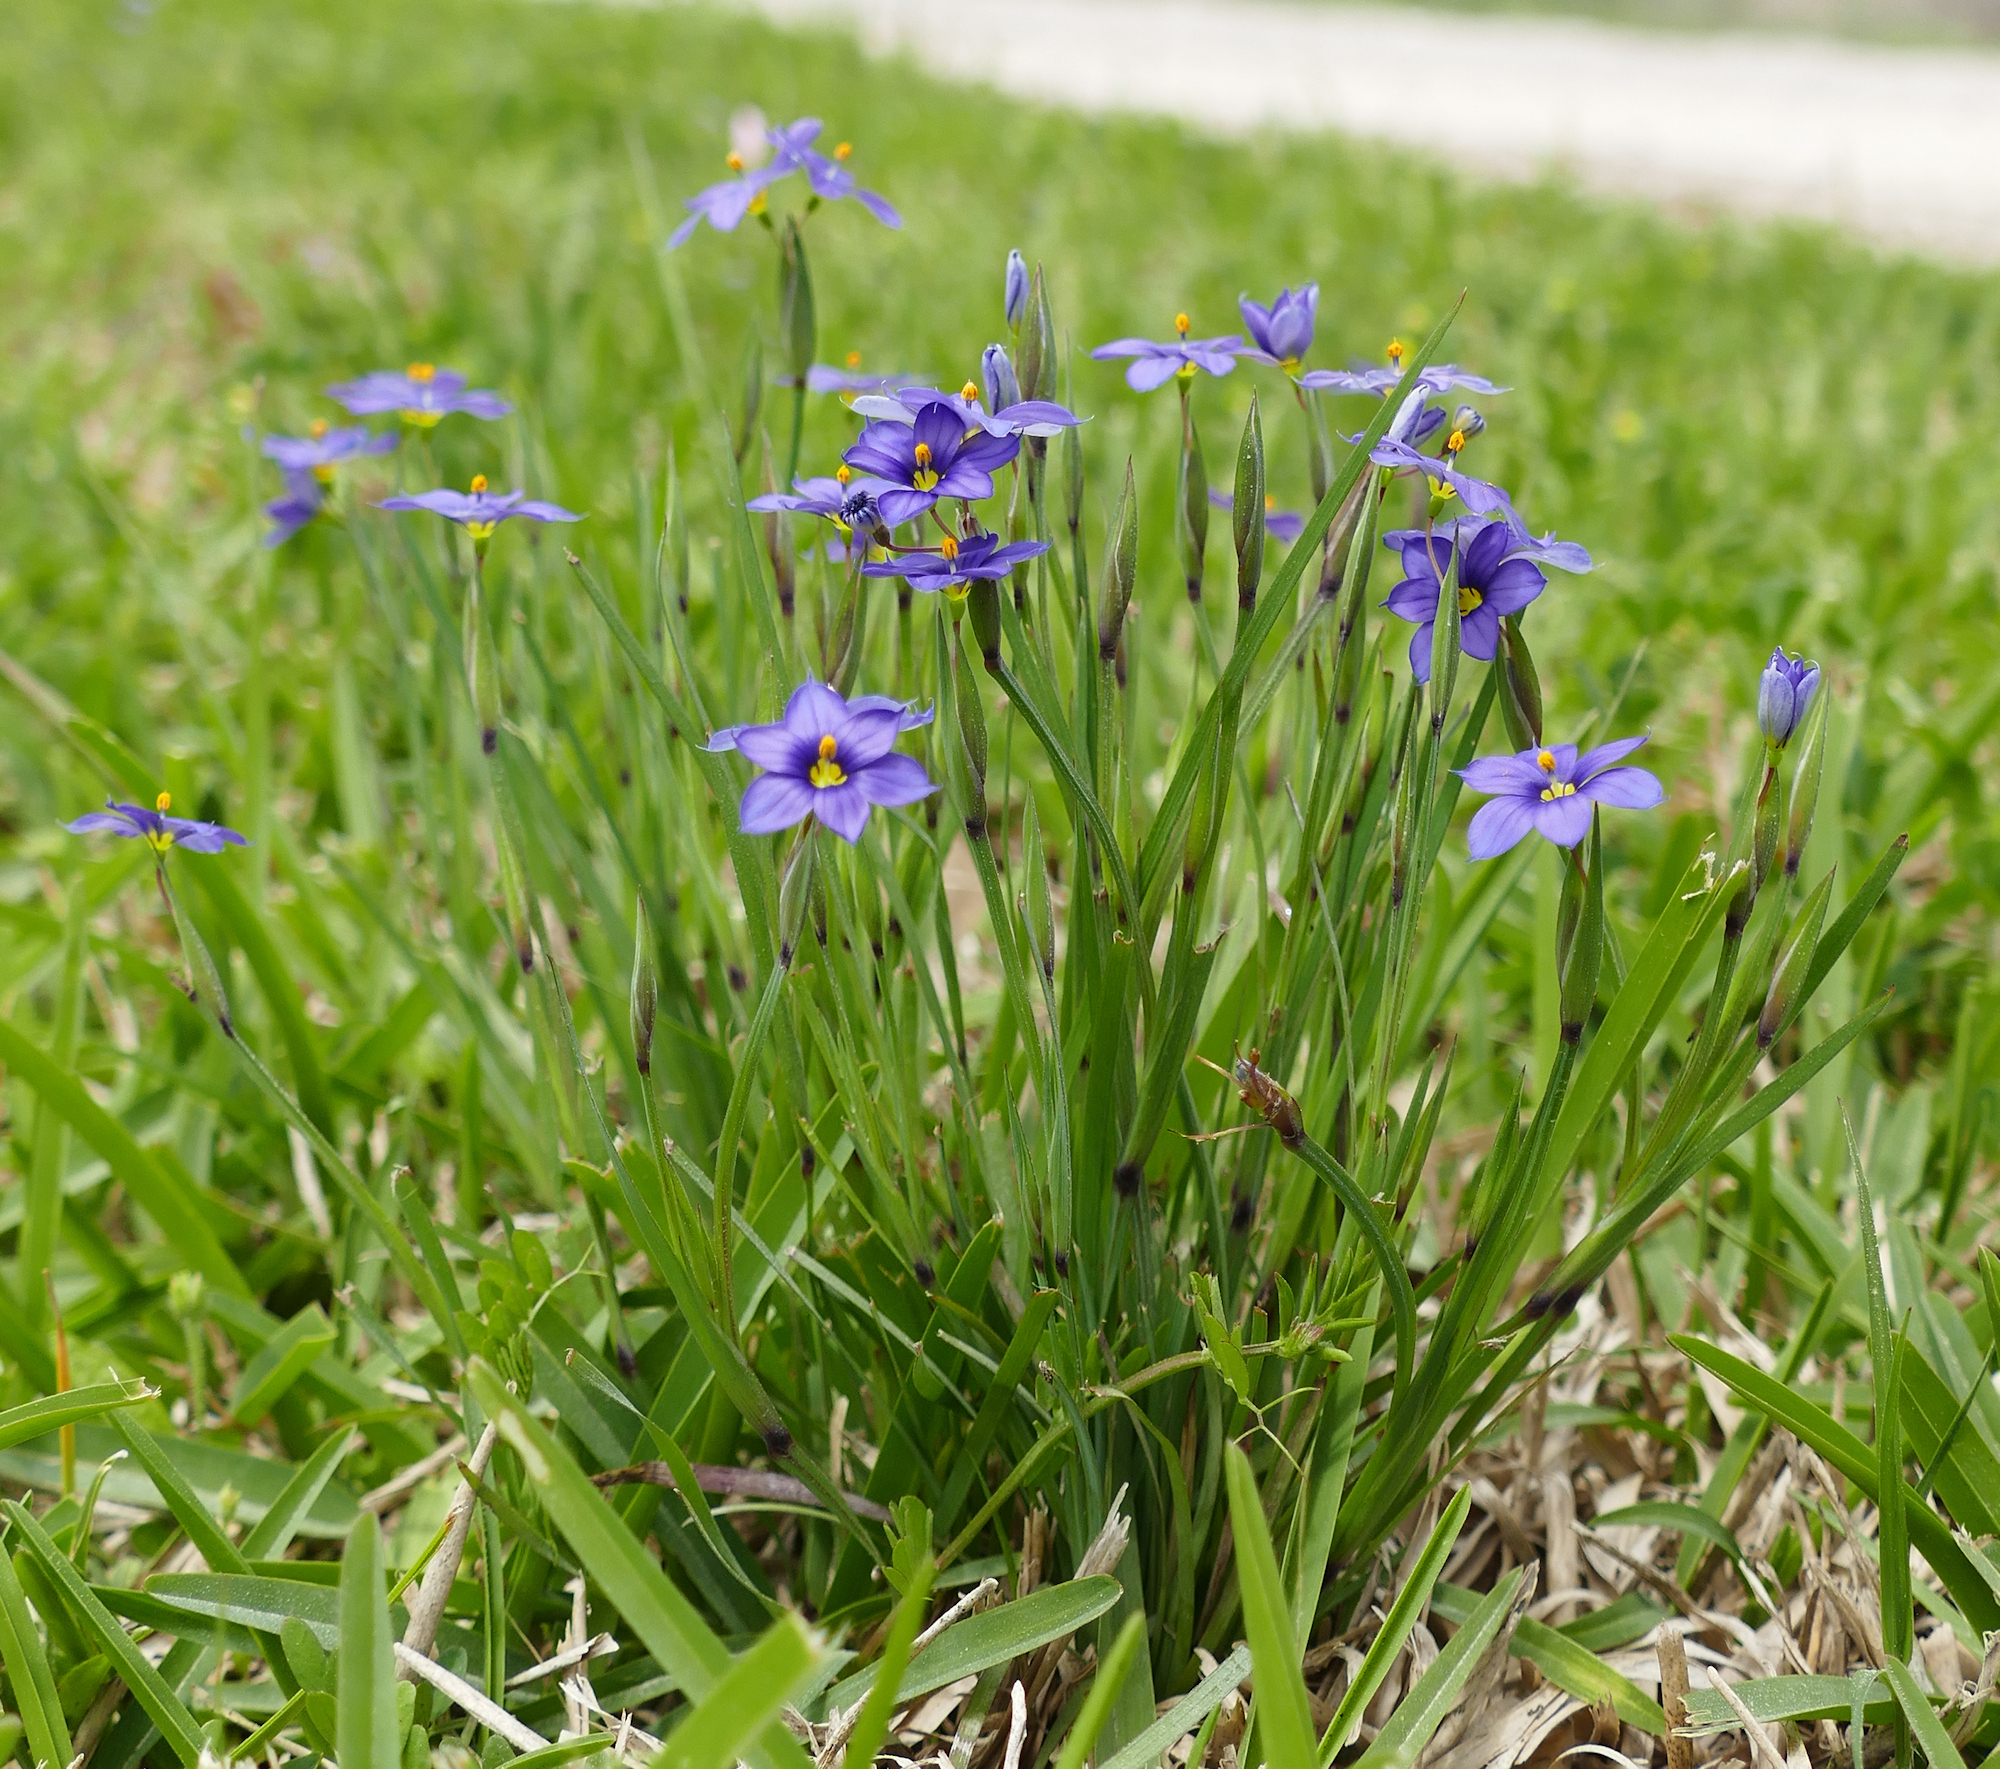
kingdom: Plantae
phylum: Tracheophyta
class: Liliopsida
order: Asparagales
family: Iridaceae
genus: Sisyrinchium
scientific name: Sisyrinchium pruinosum
